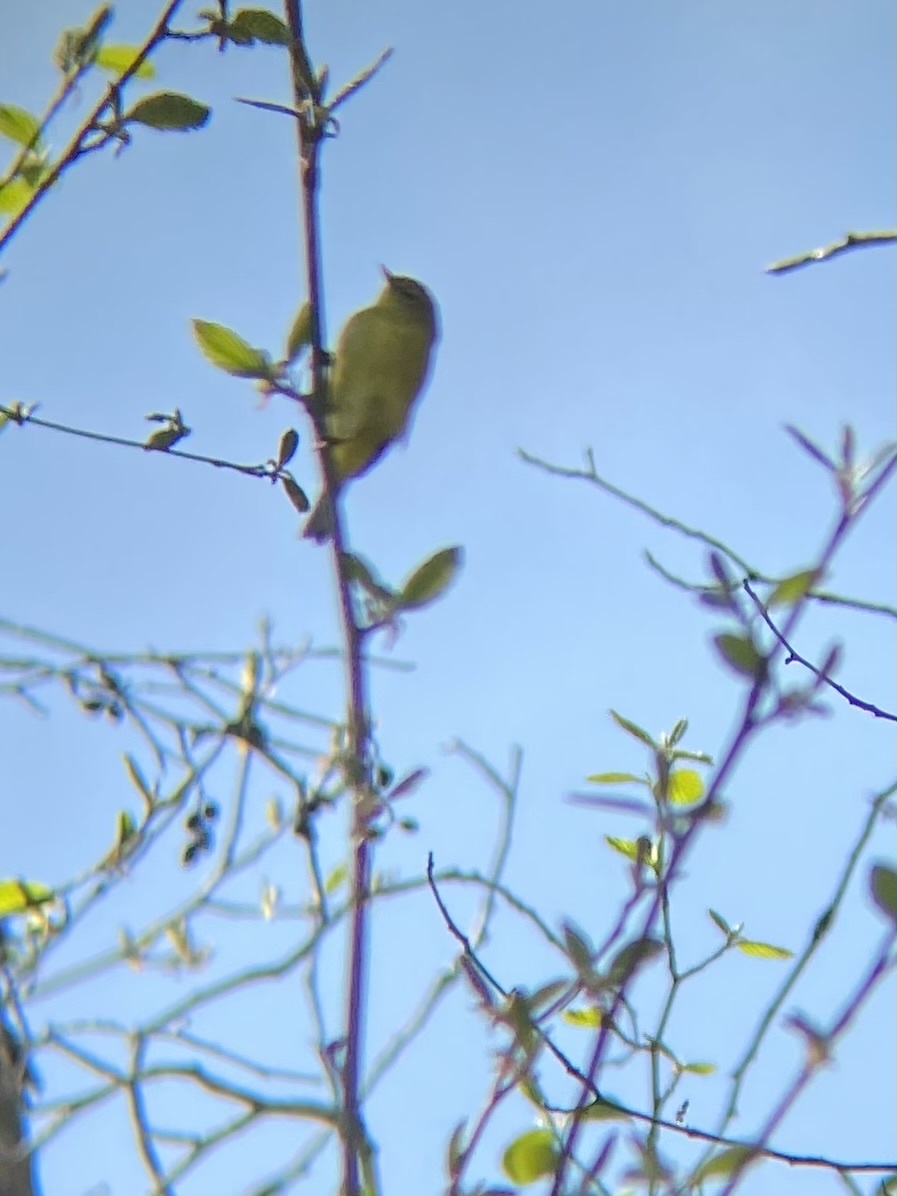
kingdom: Animalia
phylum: Chordata
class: Aves
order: Passeriformes
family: Parulidae
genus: Leiothlypis
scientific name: Leiothlypis celata
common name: Orange-crowned warbler
